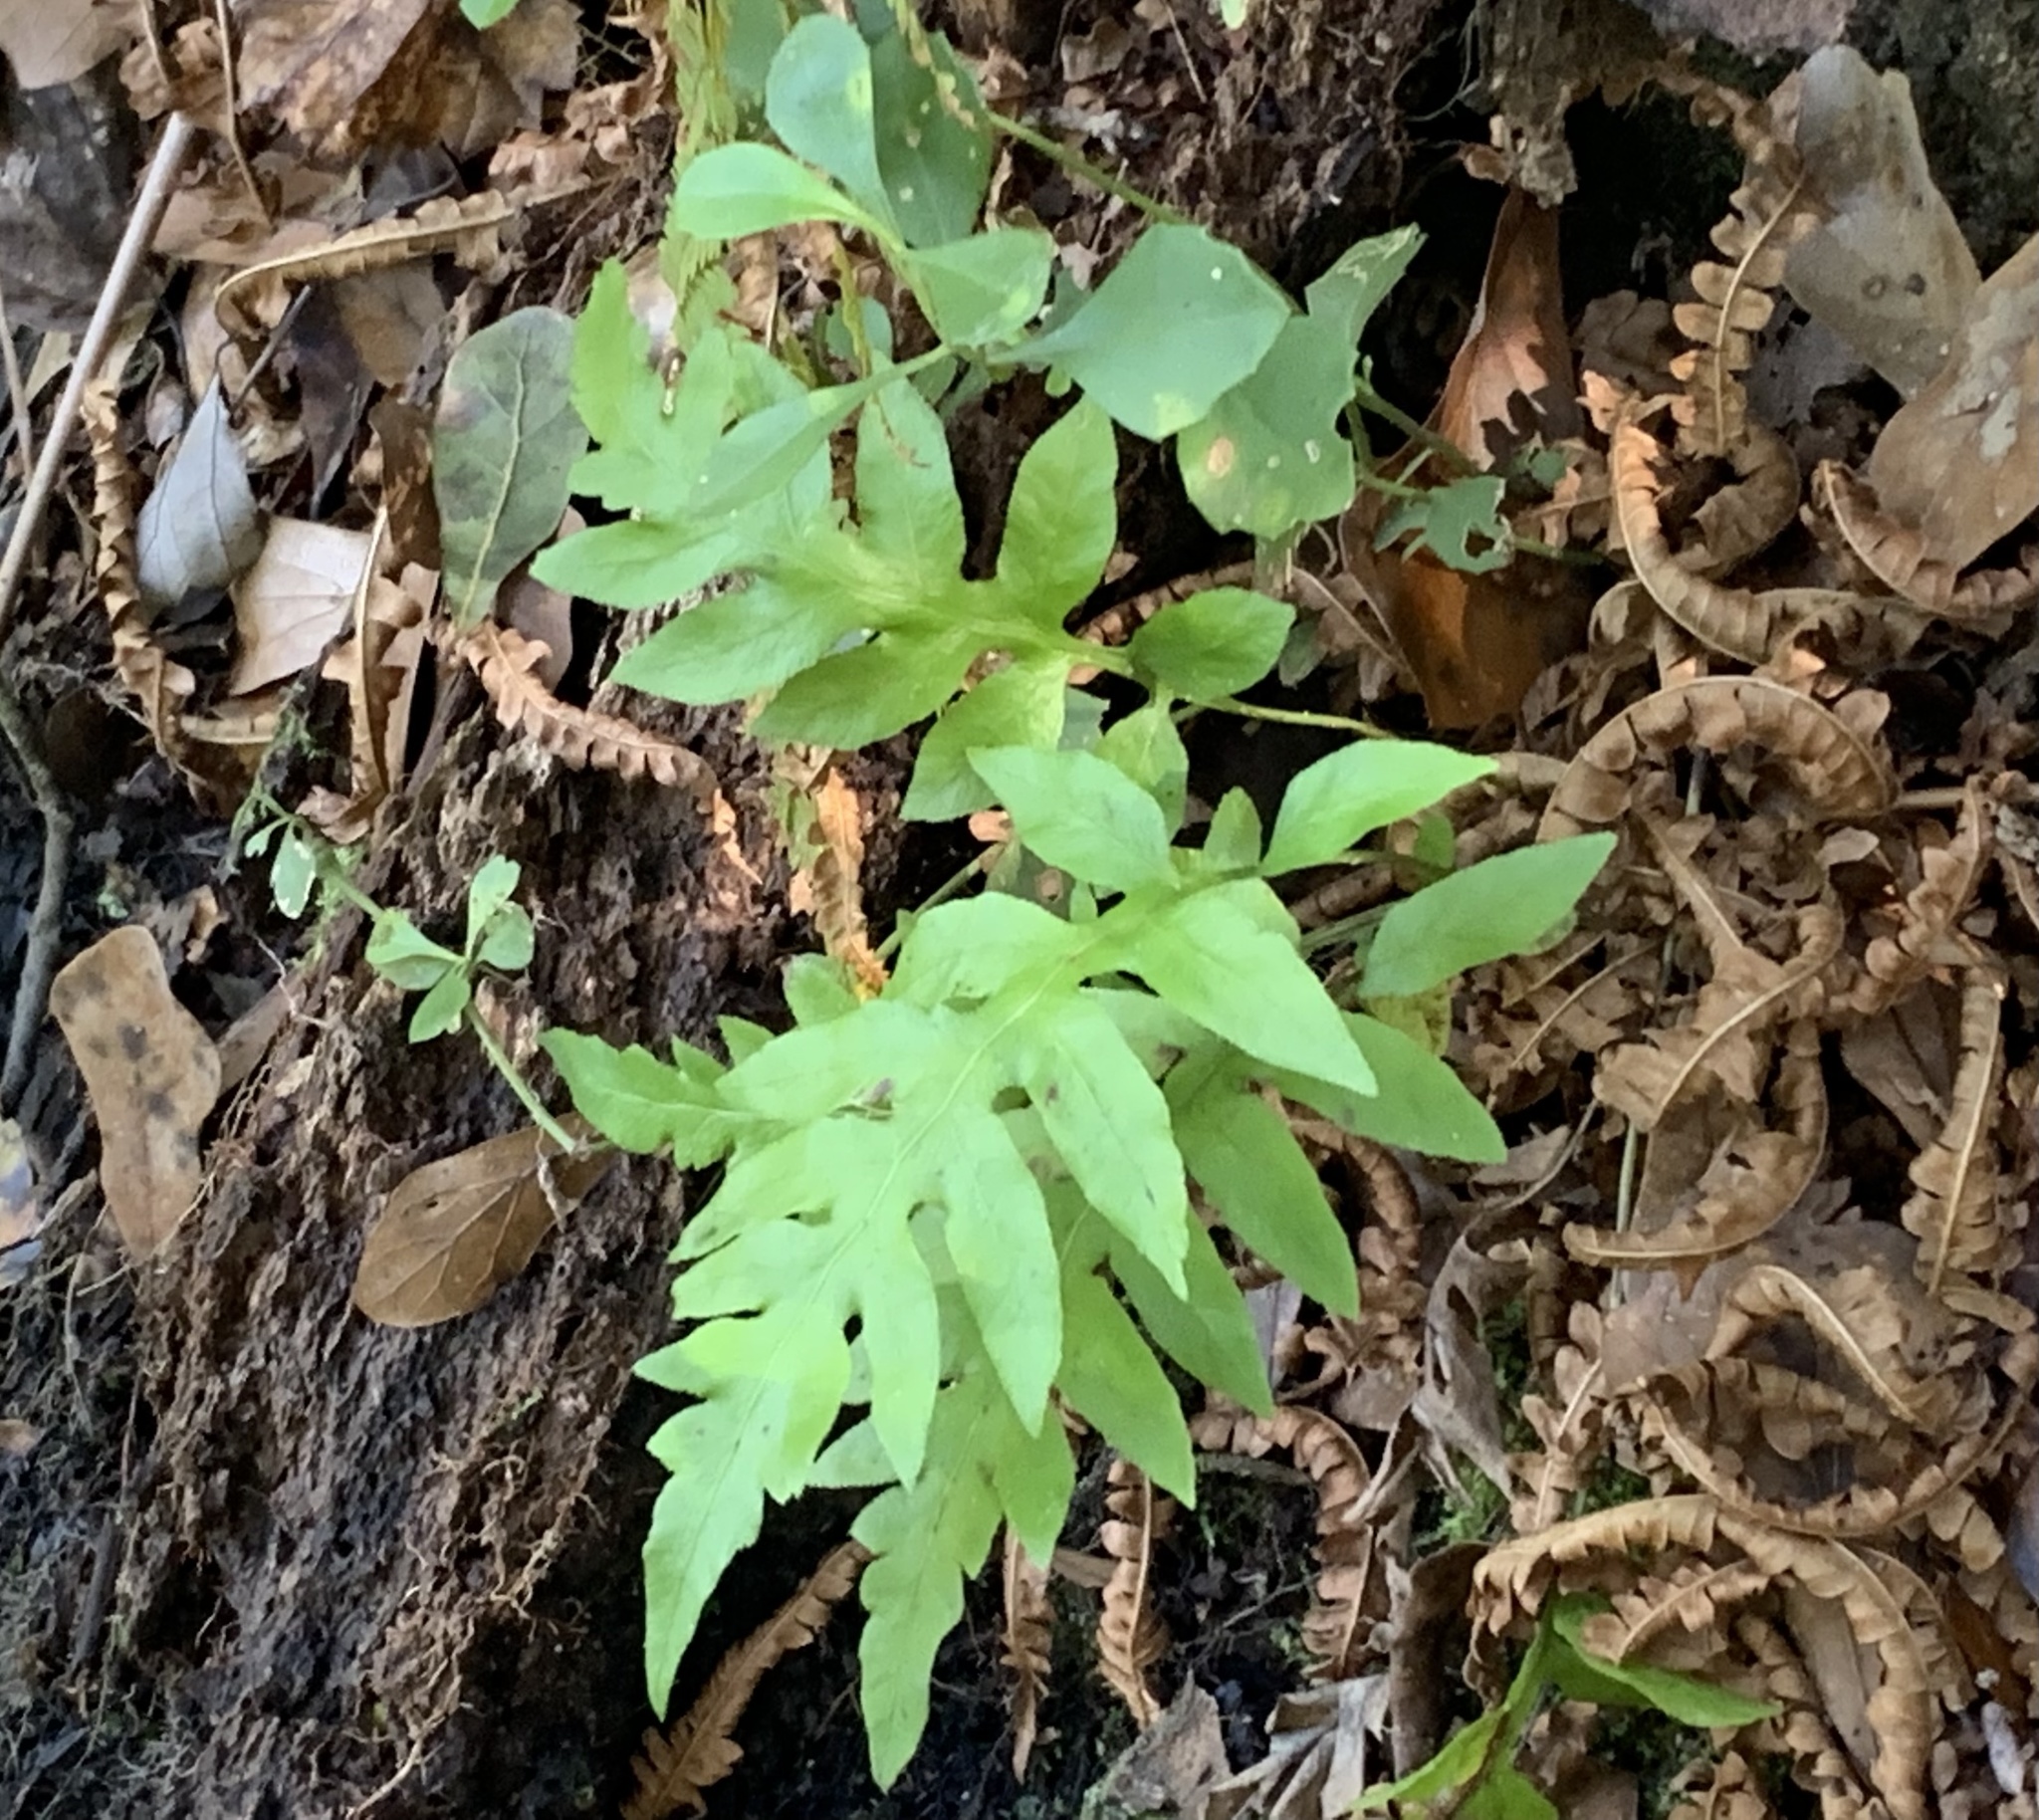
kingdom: Plantae
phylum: Tracheophyta
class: Polypodiopsida
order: Polypodiales
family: Blechnaceae
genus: Lorinseria
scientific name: Lorinseria areolata
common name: Dwarf chain fern
